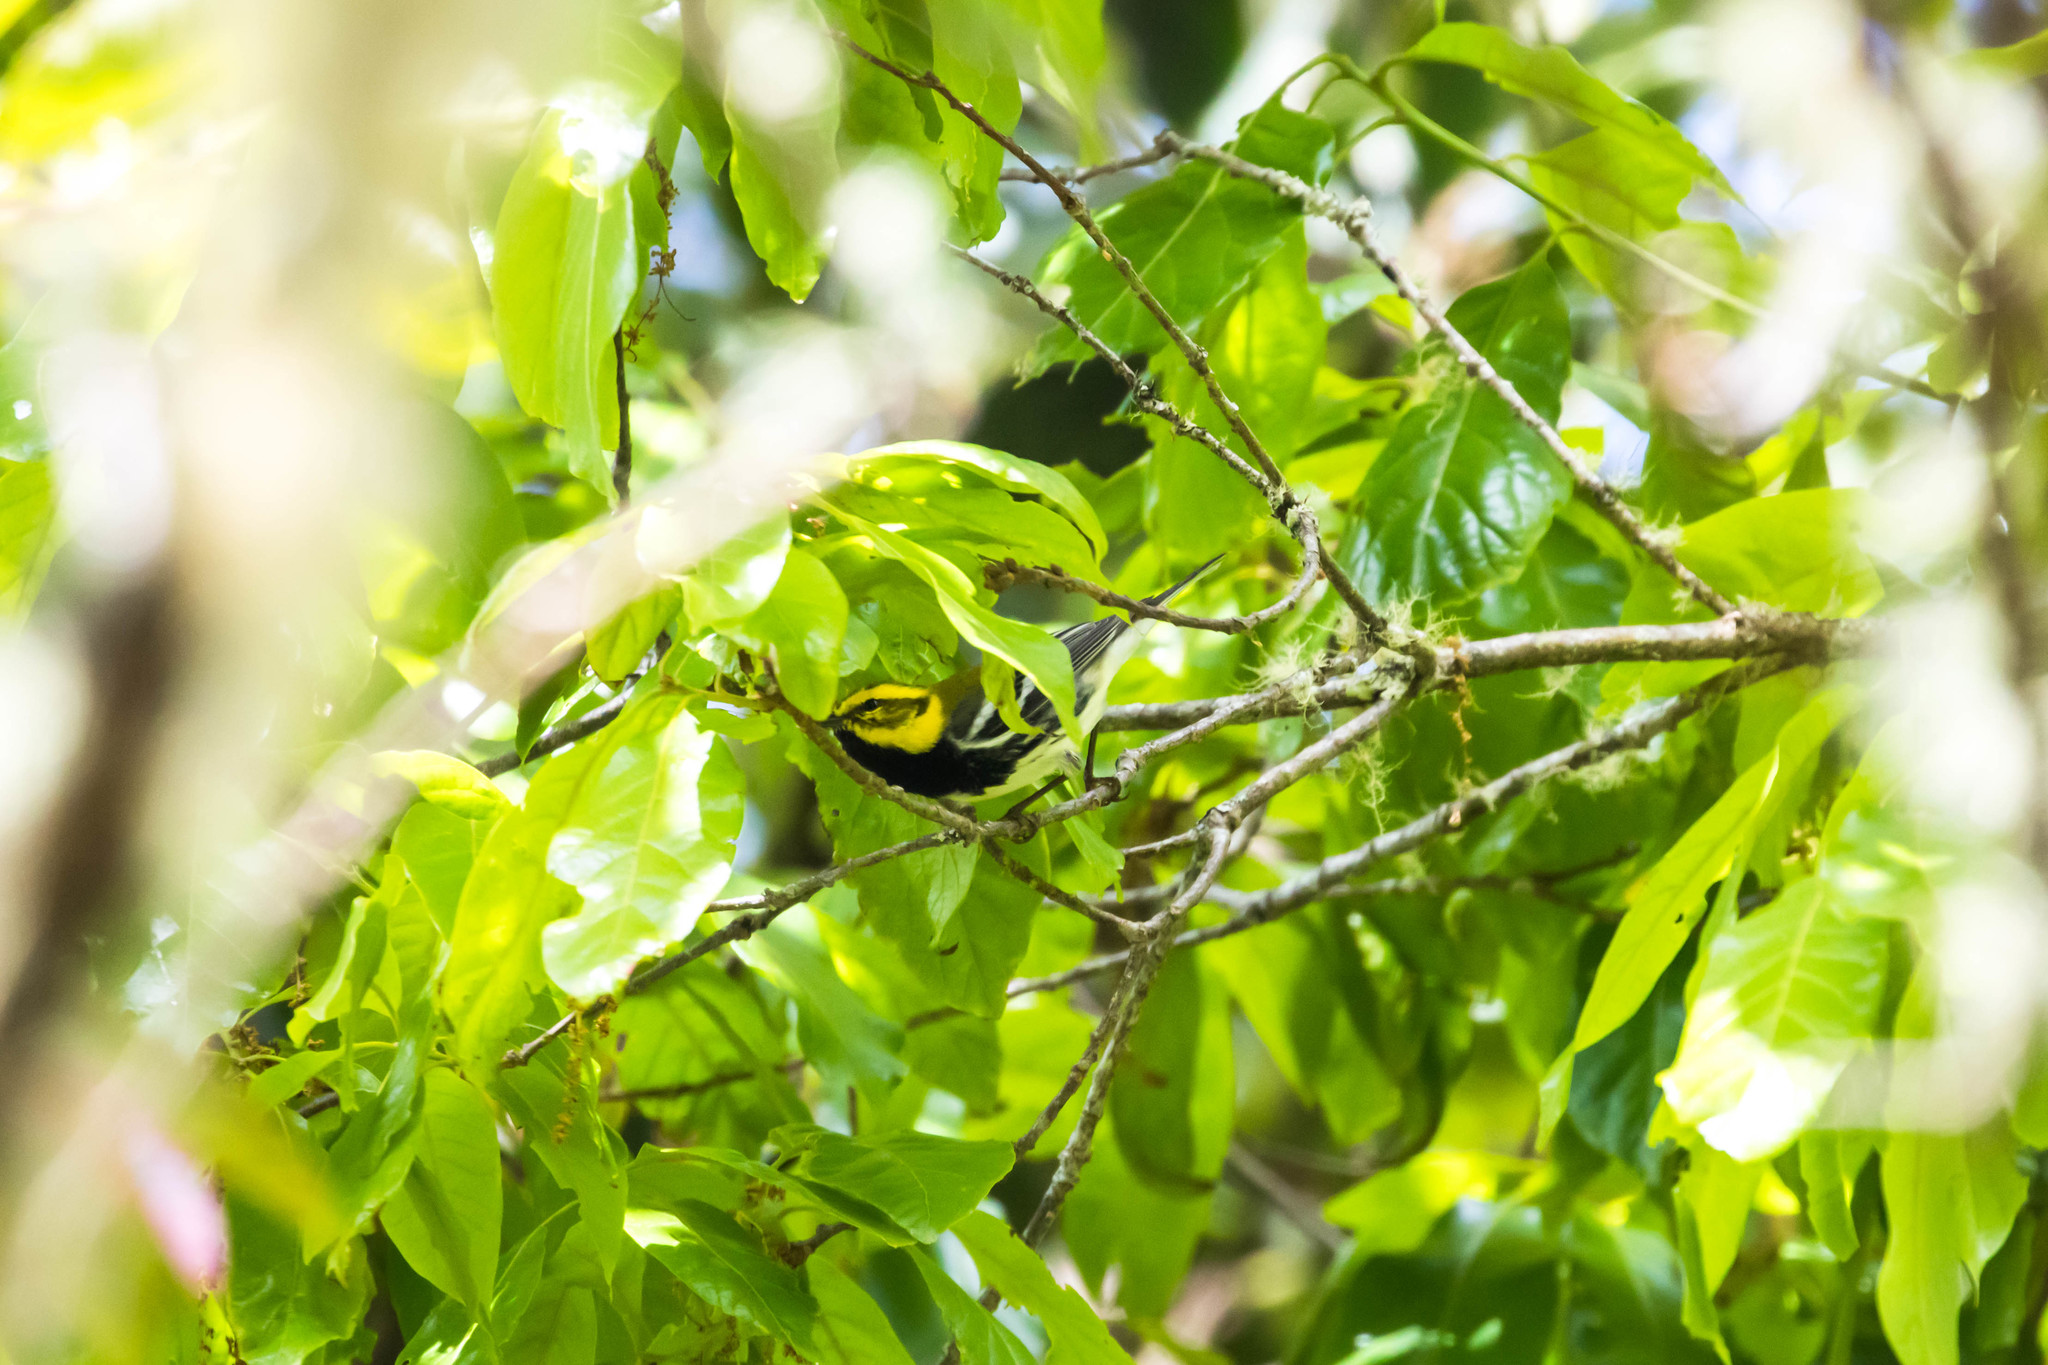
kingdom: Animalia
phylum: Chordata
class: Aves
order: Passeriformes
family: Parulidae
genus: Setophaga
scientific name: Setophaga virens
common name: Black-throated green warbler
